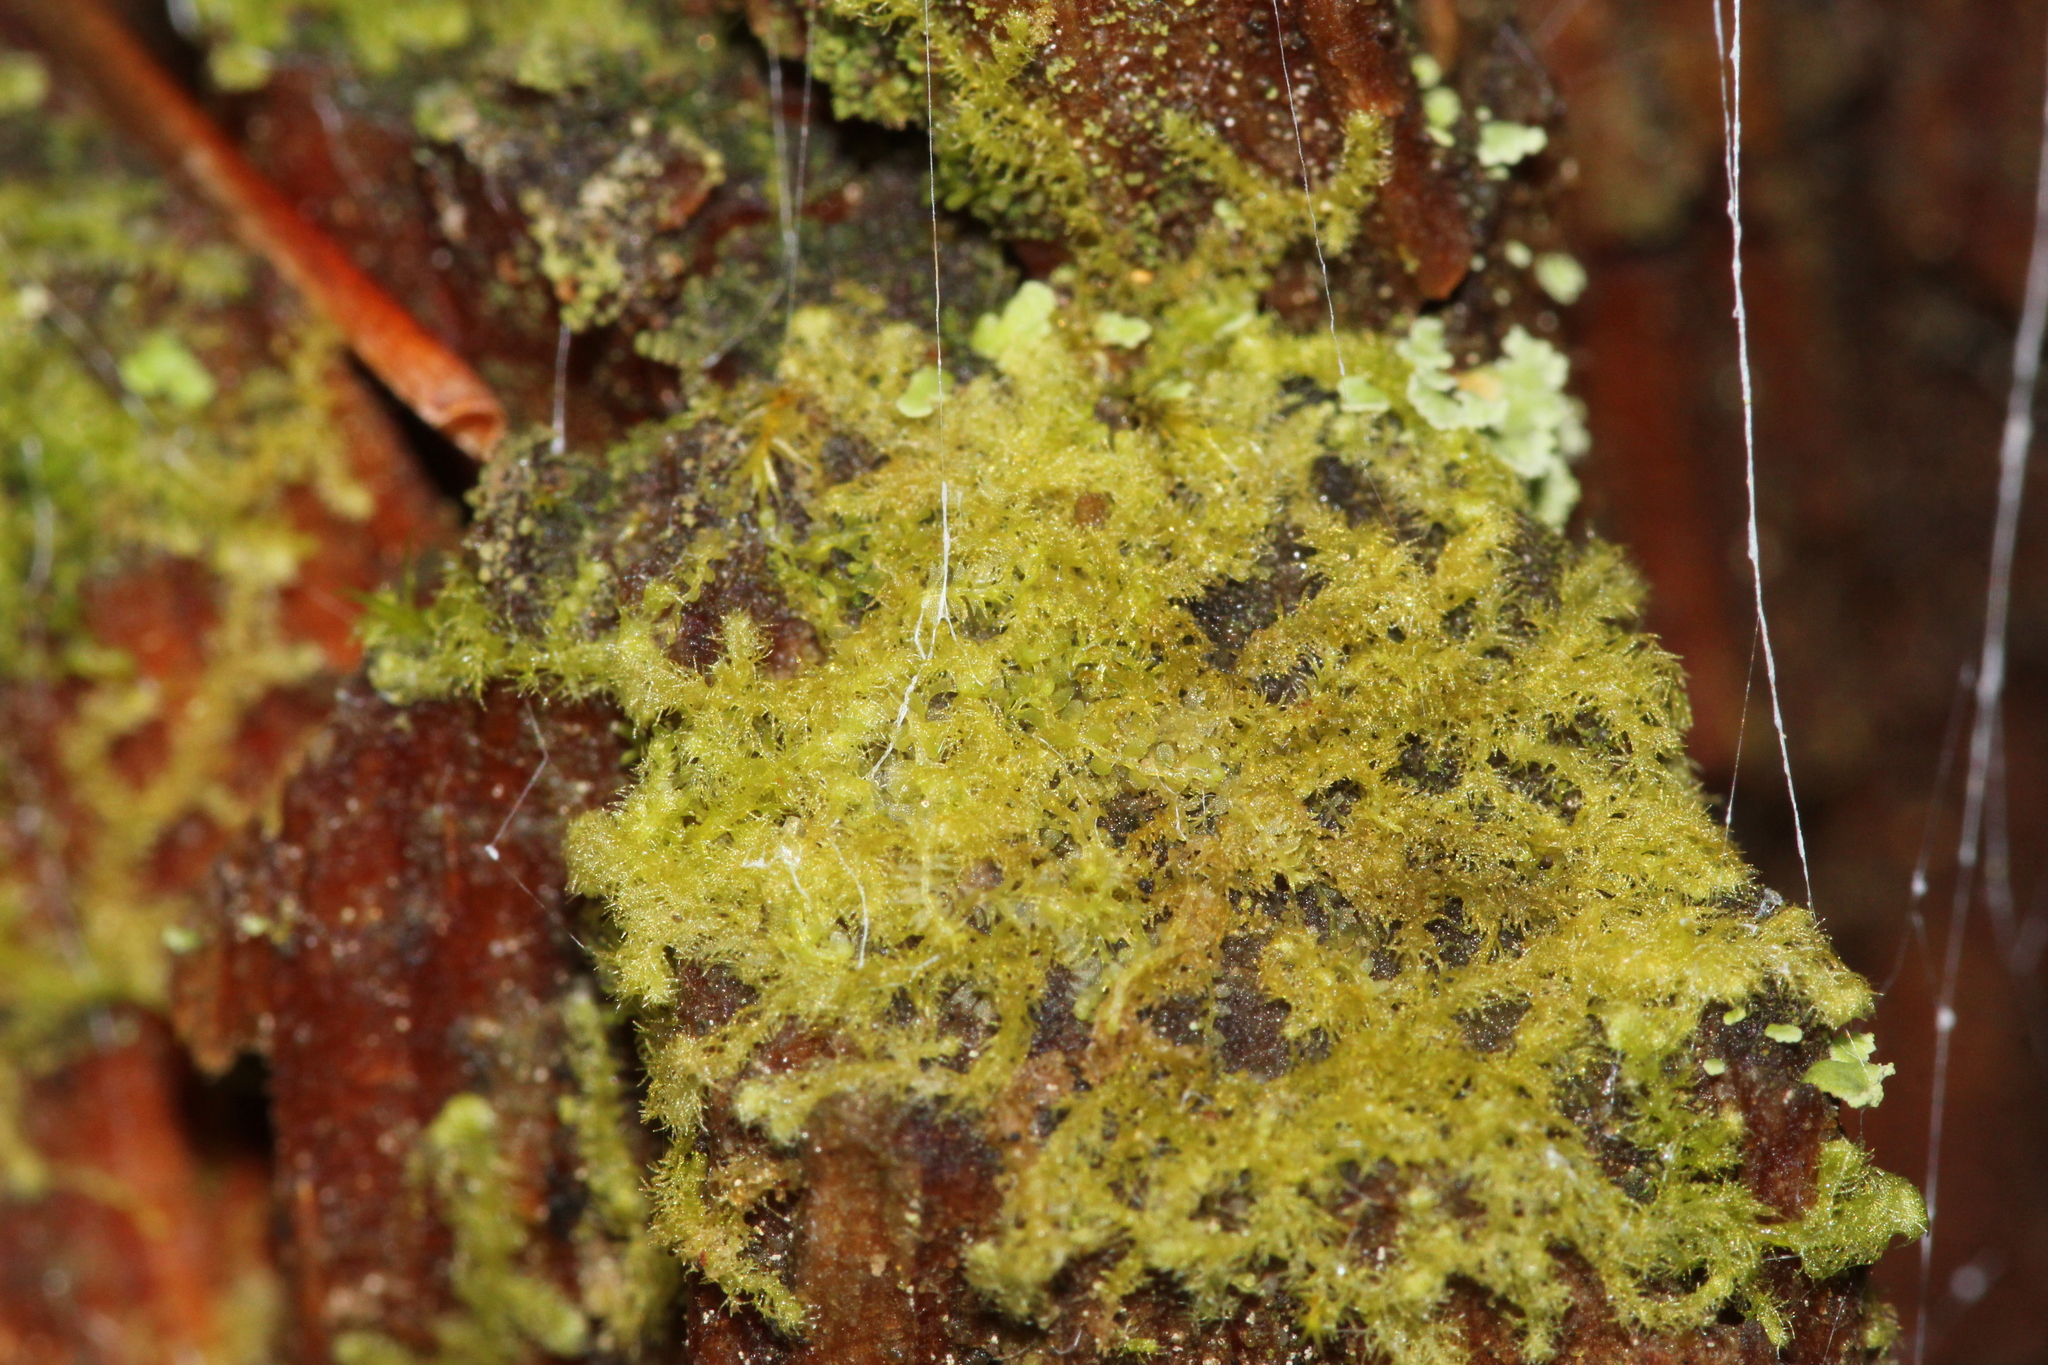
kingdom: Plantae
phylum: Marchantiophyta
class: Jungermanniopsida
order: Ptilidiales
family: Ptilidiaceae
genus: Ptilidium
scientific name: Ptilidium pulcherrimum
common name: Tree fringewort
